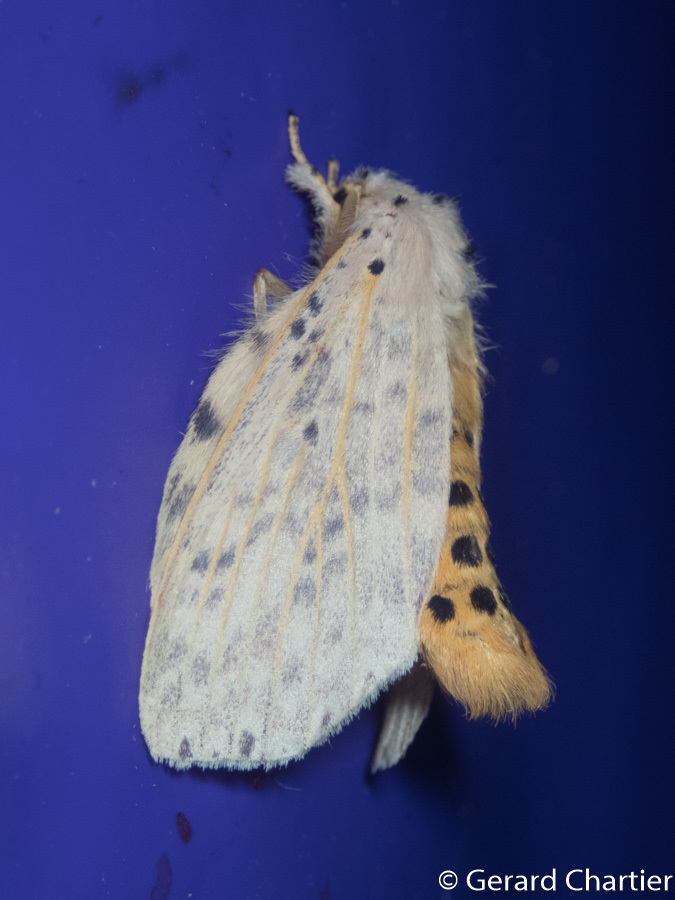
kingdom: Animalia
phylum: Arthropoda
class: Insecta
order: Lepidoptera
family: Notodontidae
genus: Cerasana
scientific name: Cerasana
